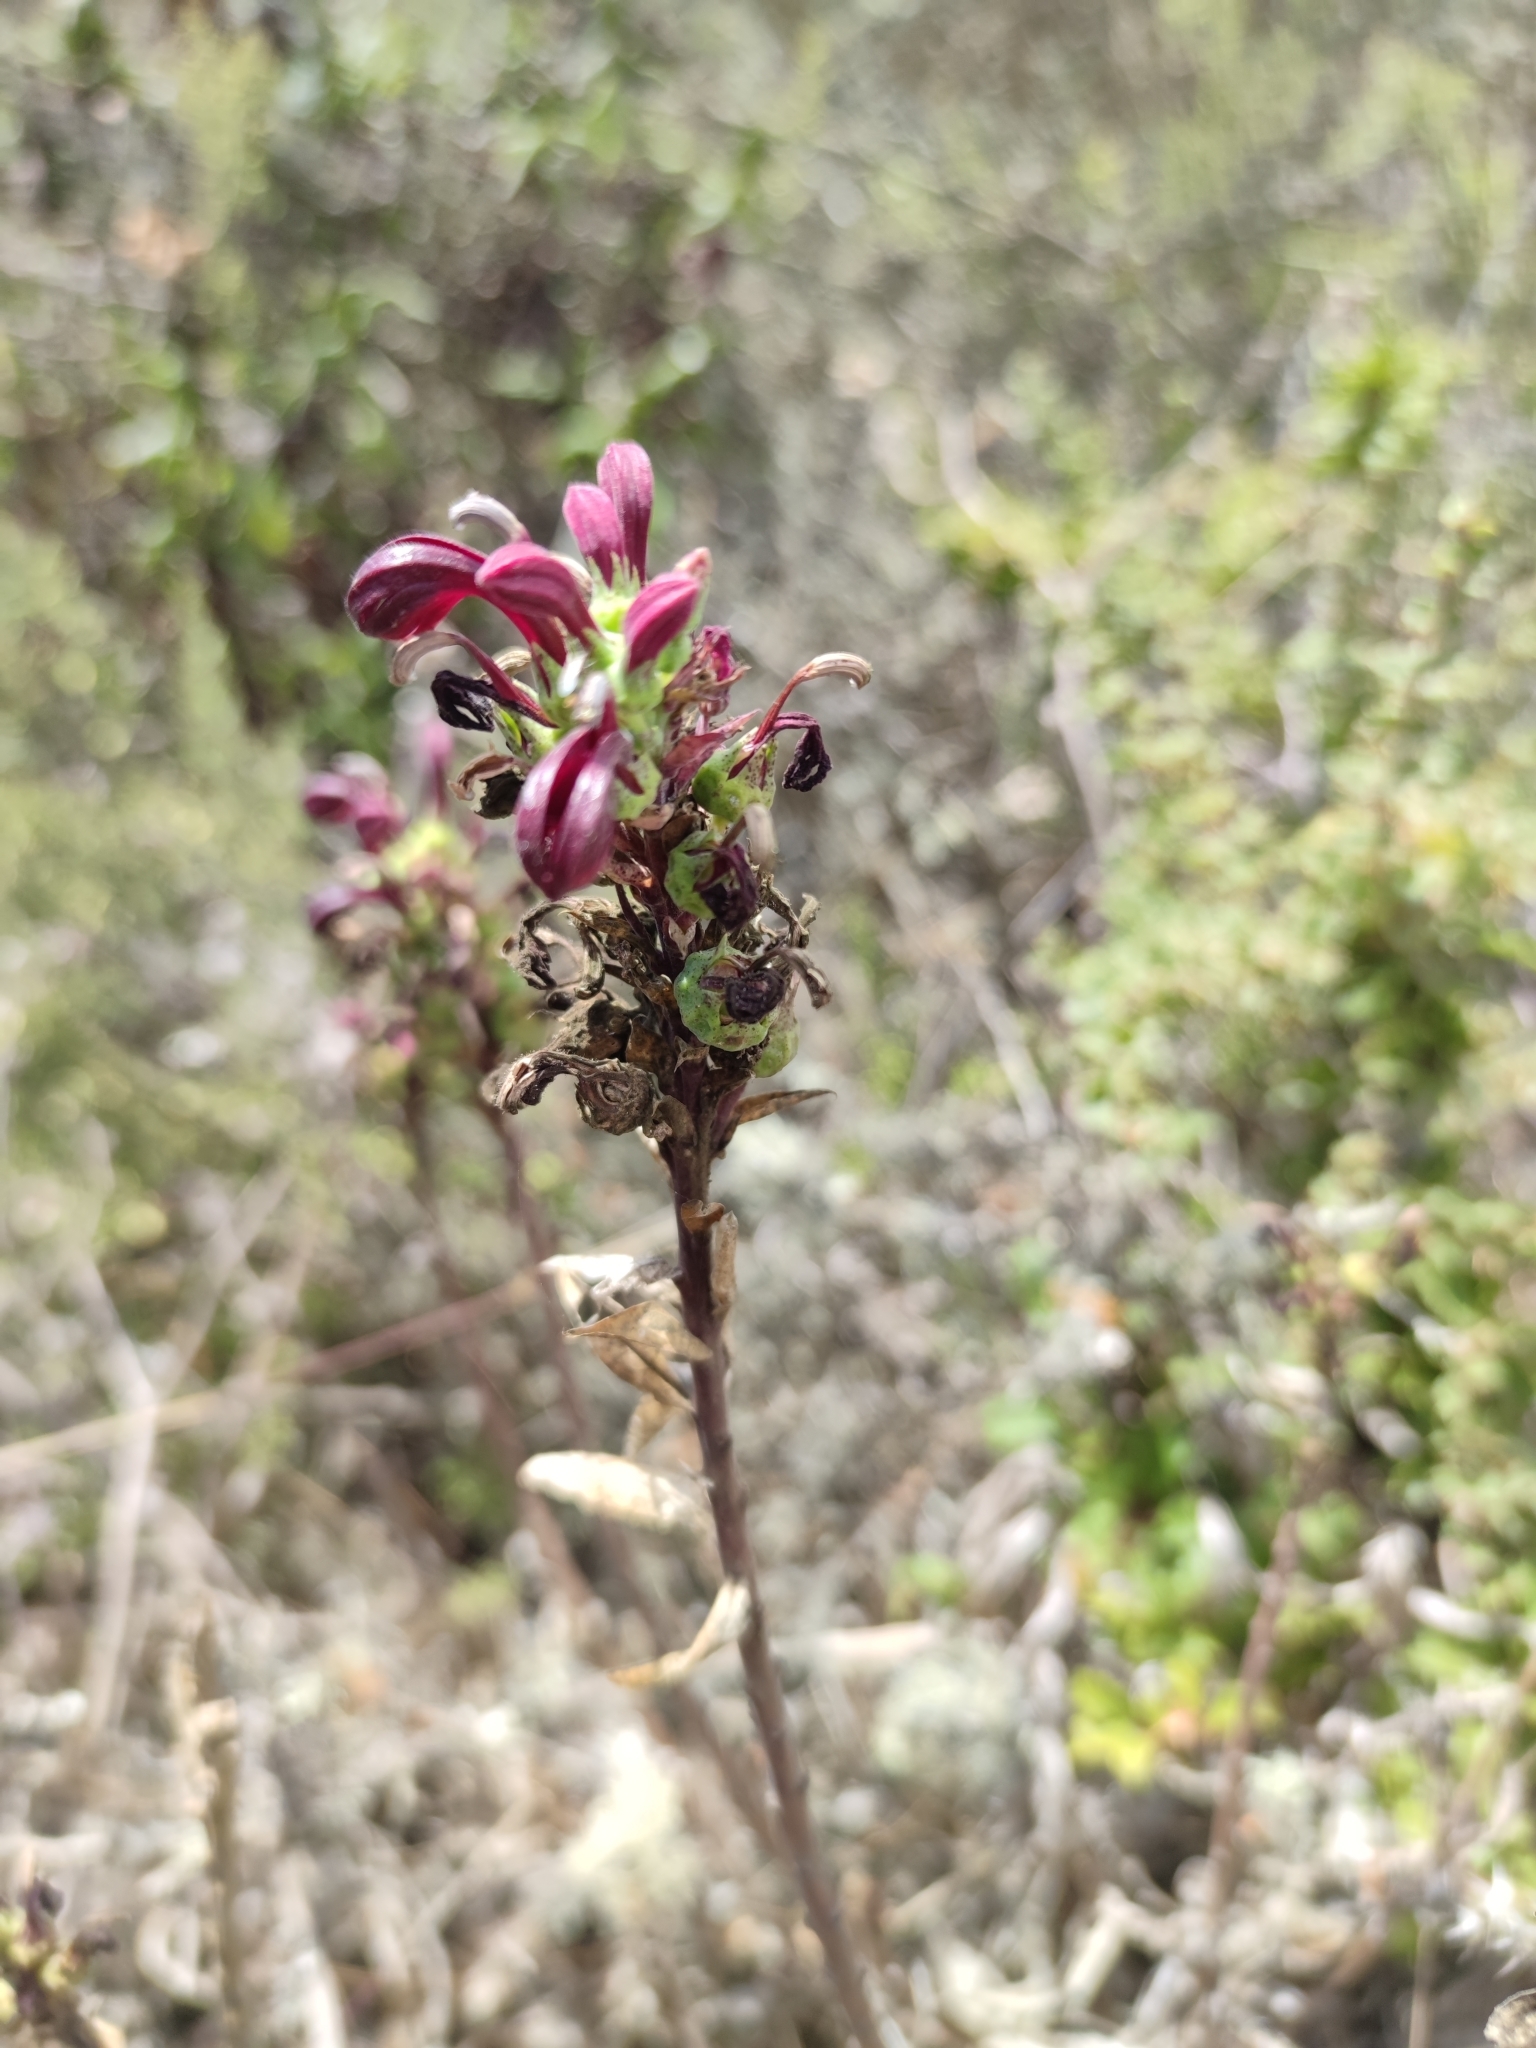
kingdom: Plantae
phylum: Tracheophyta
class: Magnoliopsida
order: Asterales
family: Campanulaceae
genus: Lobelia
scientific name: Lobelia polyphylla
